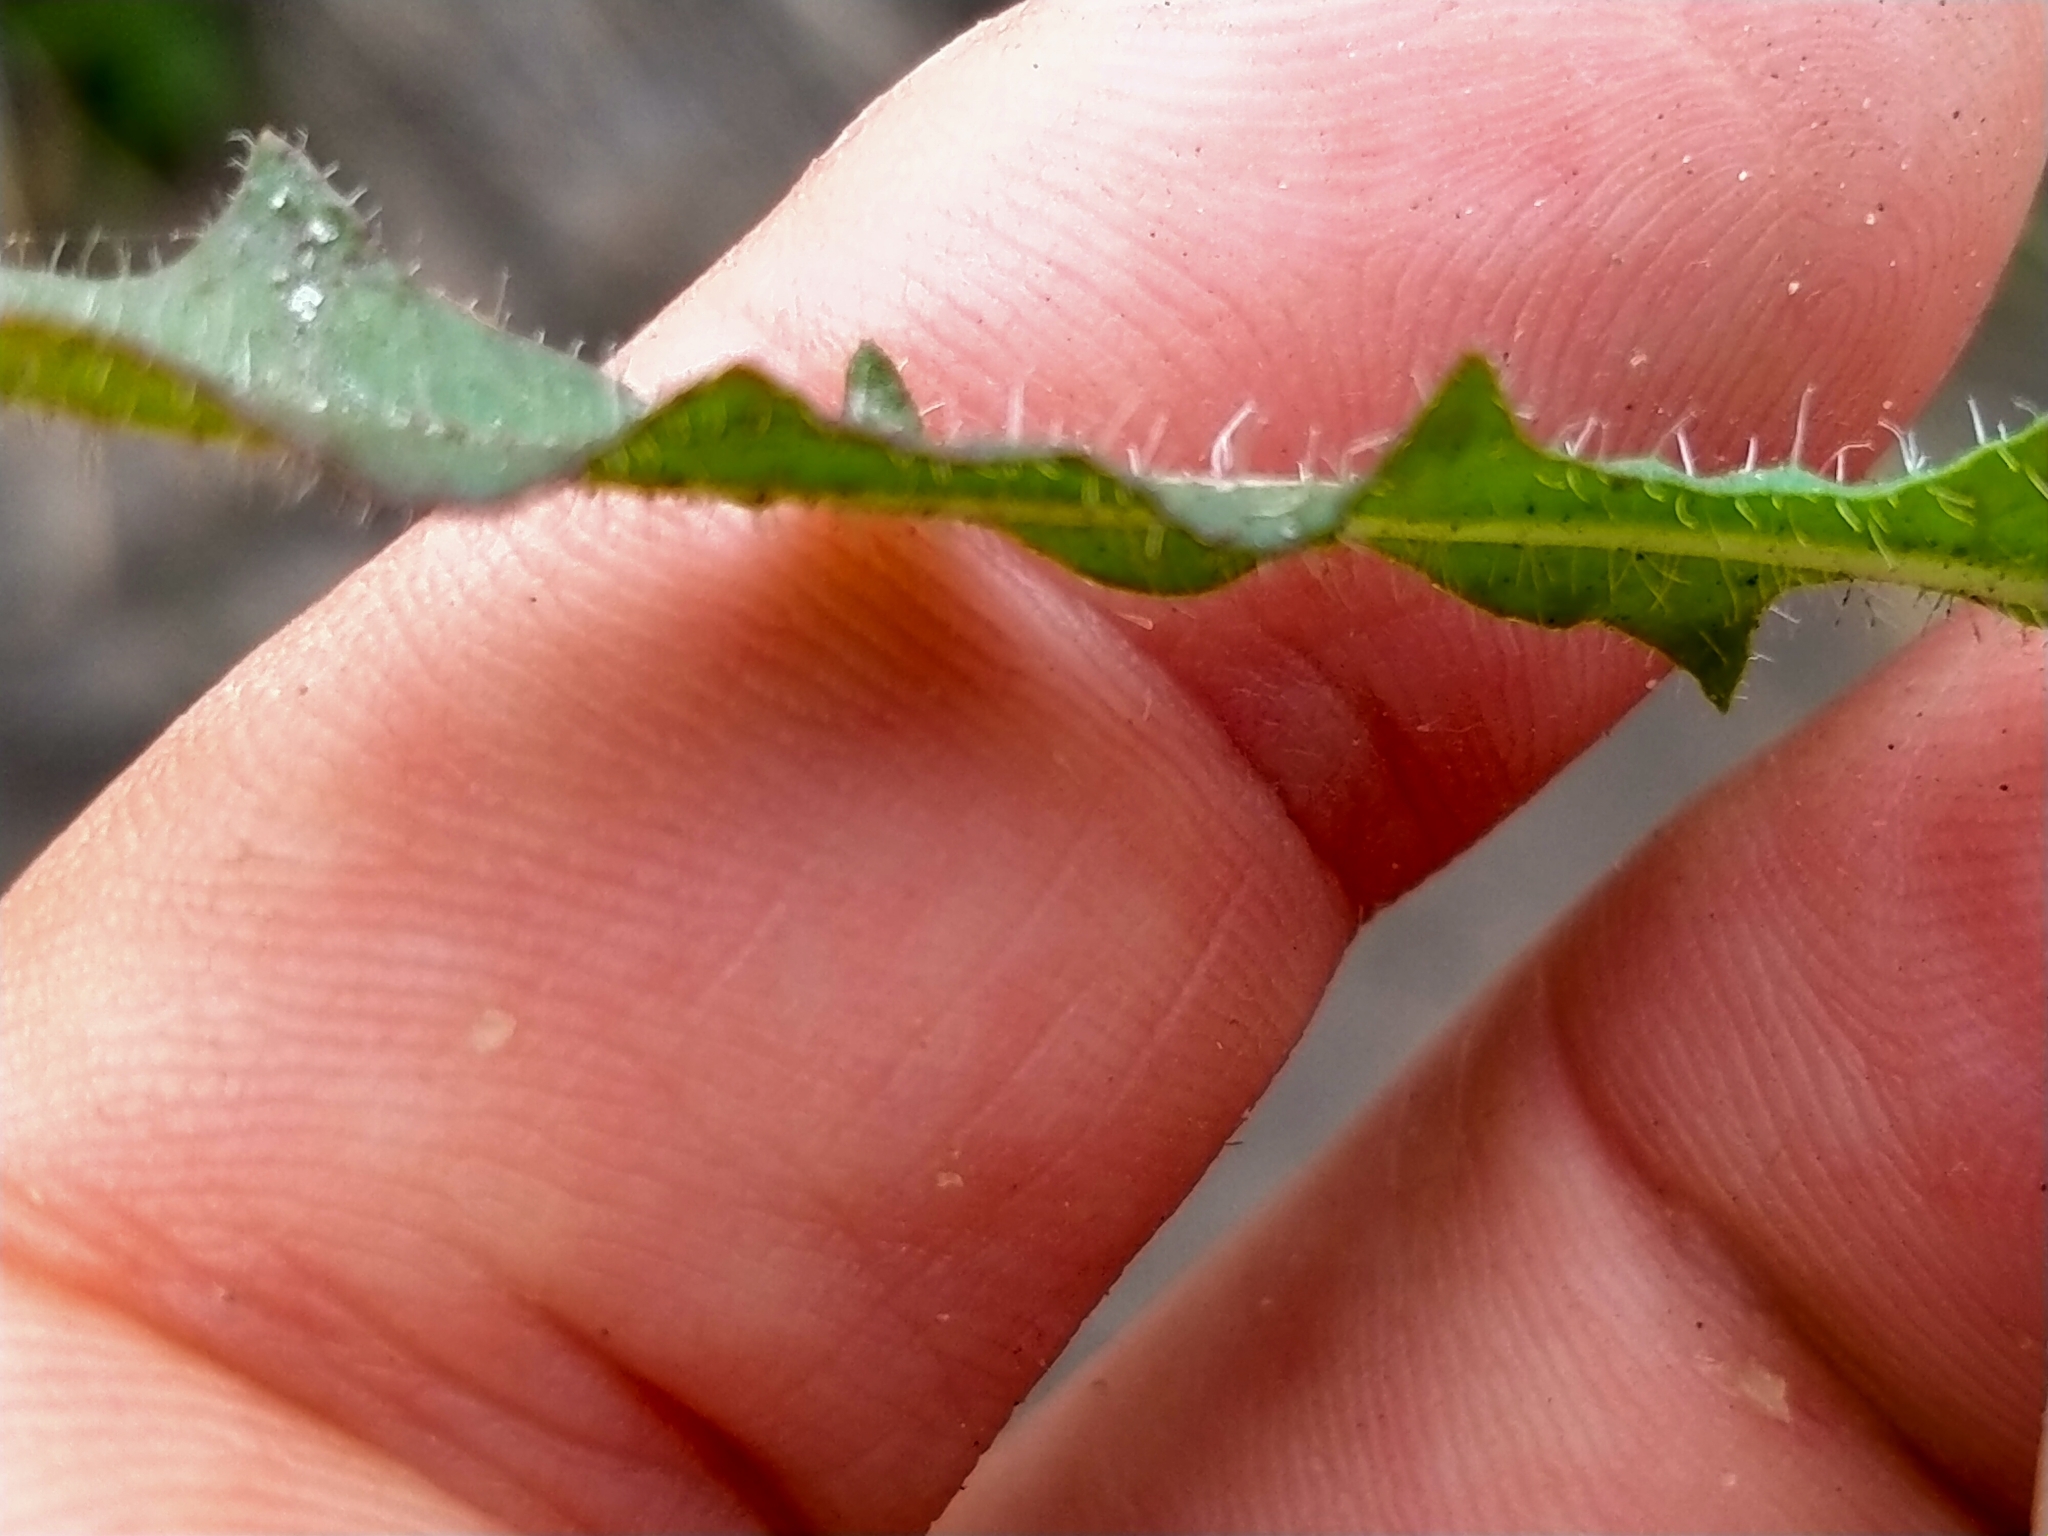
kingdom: Plantae
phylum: Tracheophyta
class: Magnoliopsida
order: Asterales
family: Asteraceae
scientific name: Asteraceae
